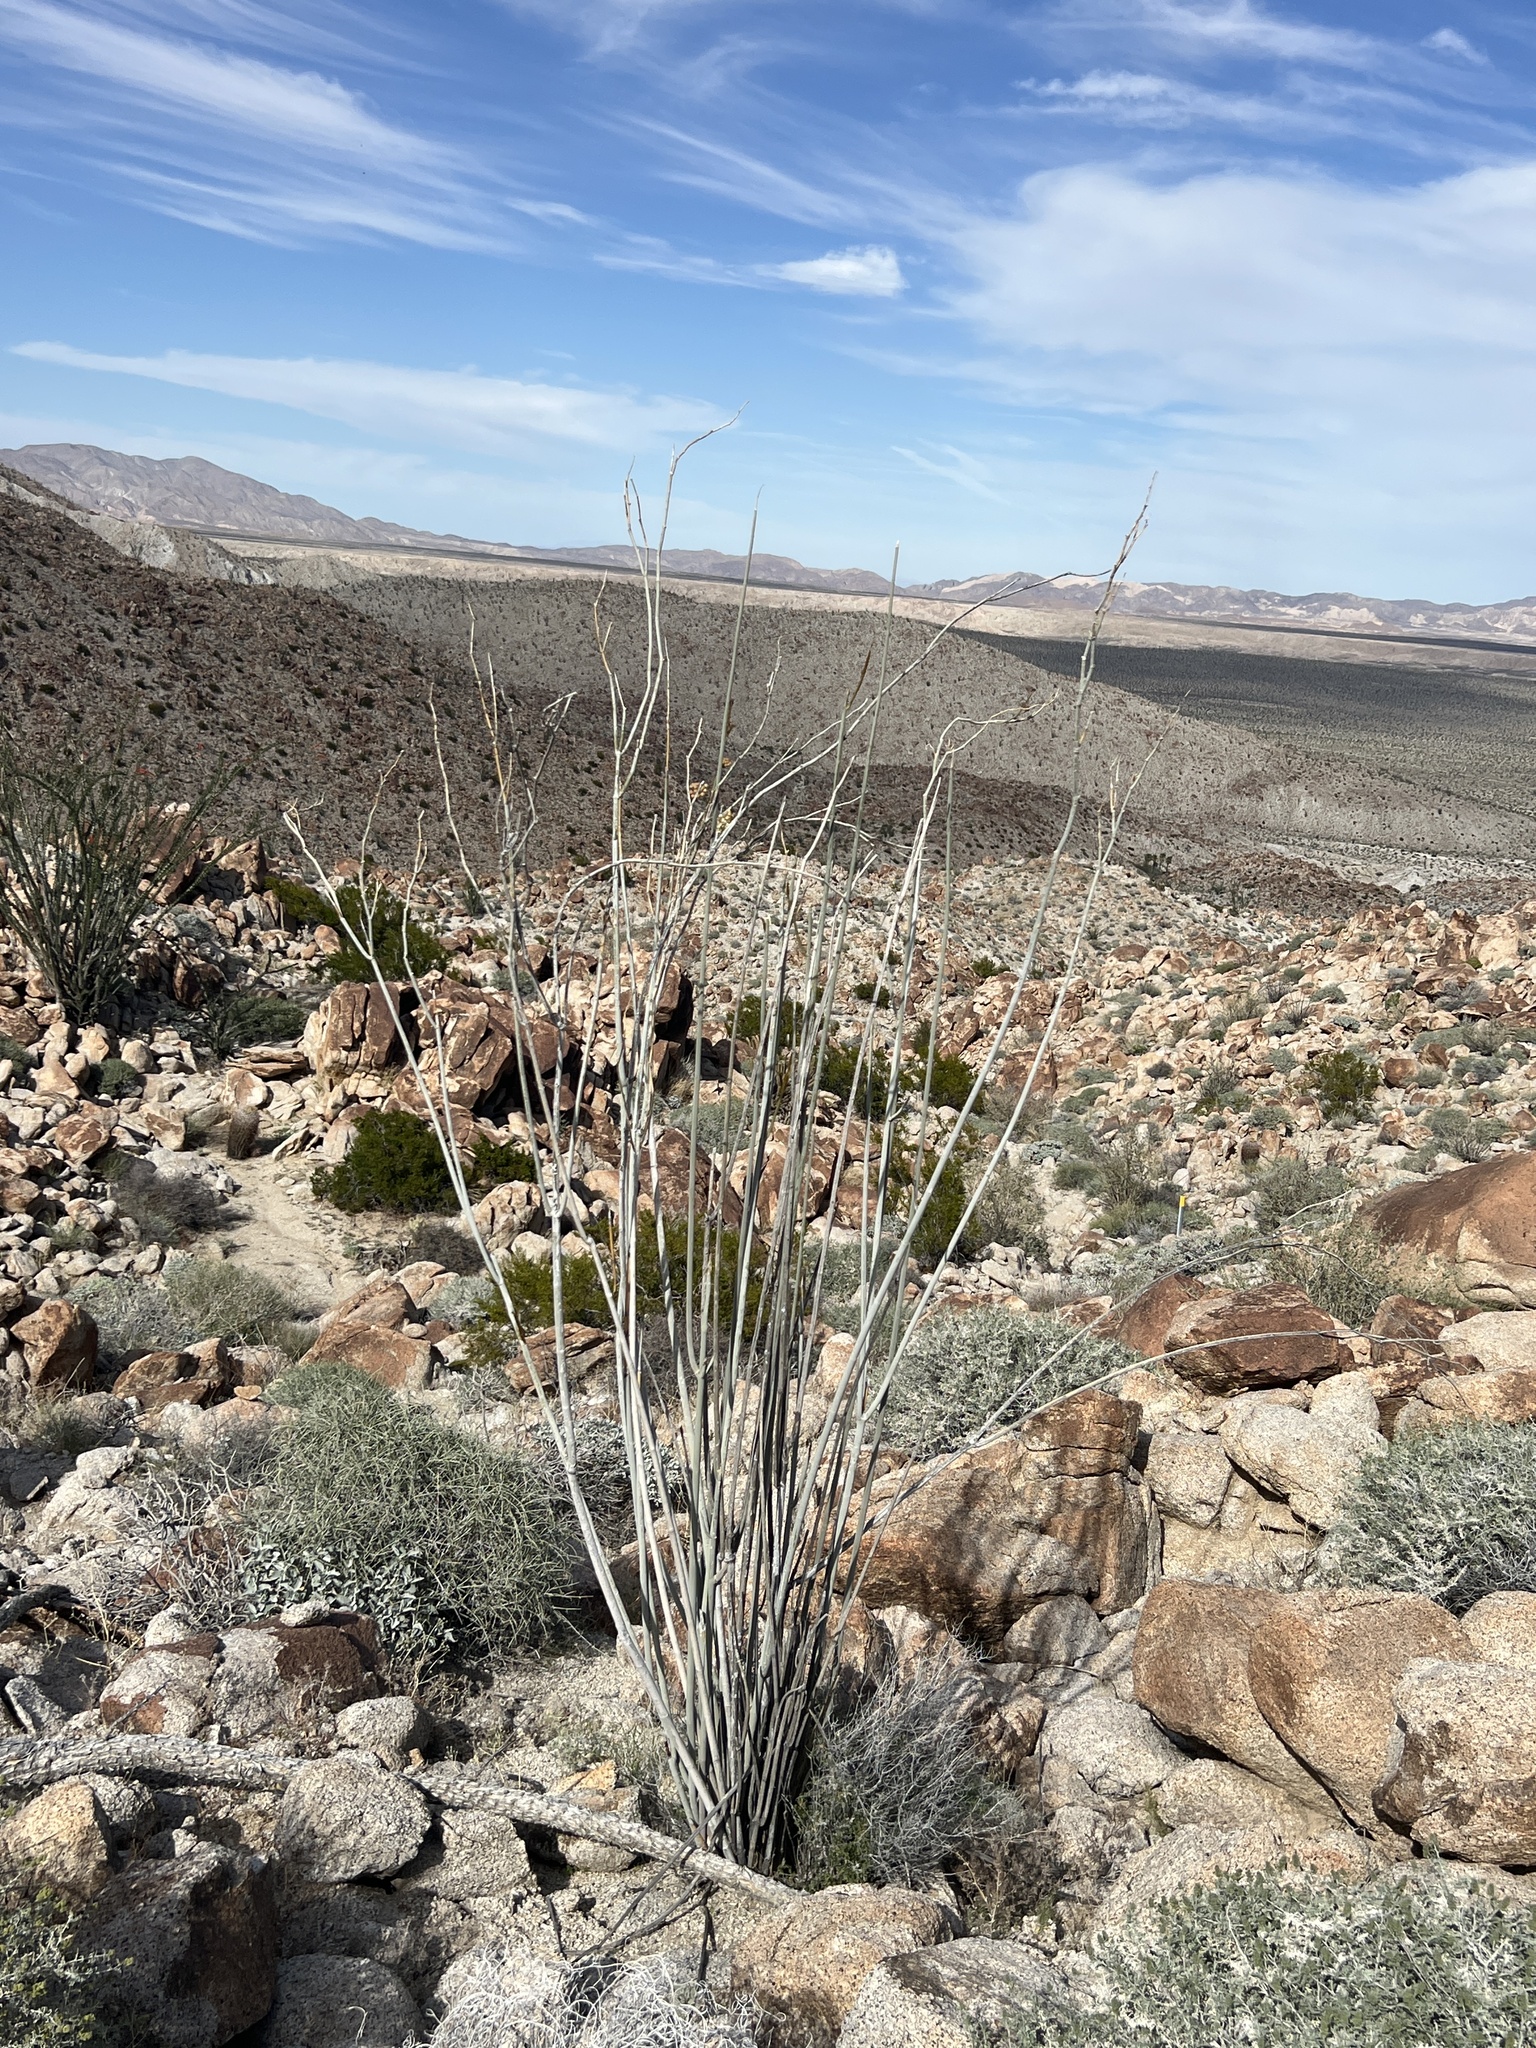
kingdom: Plantae
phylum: Tracheophyta
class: Magnoliopsida
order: Gentianales
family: Apocynaceae
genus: Asclepias
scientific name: Asclepias albicans
